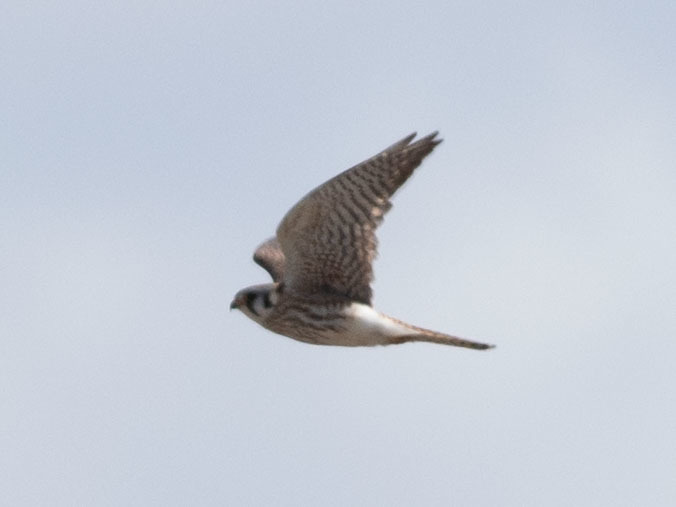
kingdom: Animalia
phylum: Chordata
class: Aves
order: Falconiformes
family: Falconidae
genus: Falco
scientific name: Falco sparverius
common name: American kestrel
